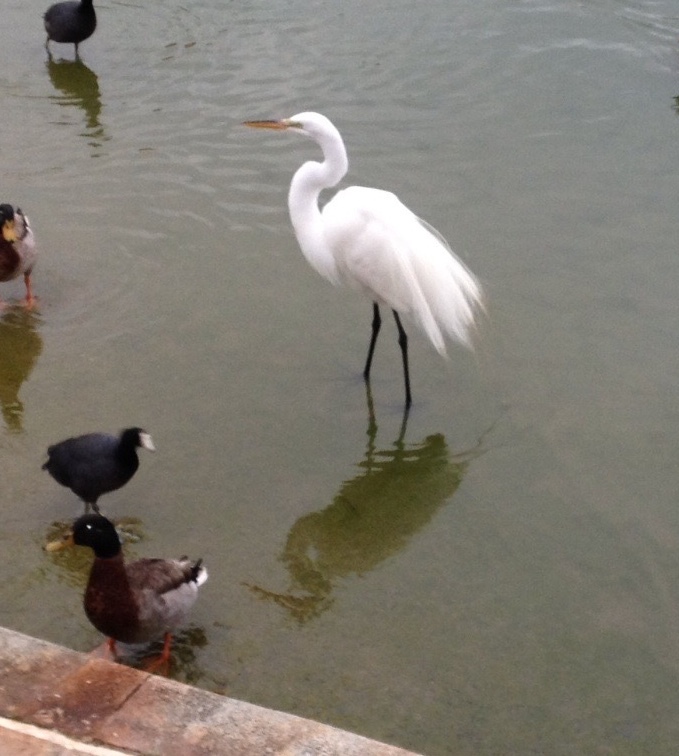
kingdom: Animalia
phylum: Chordata
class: Aves
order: Pelecaniformes
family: Ardeidae
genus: Ardea
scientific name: Ardea alba
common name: Great egret
